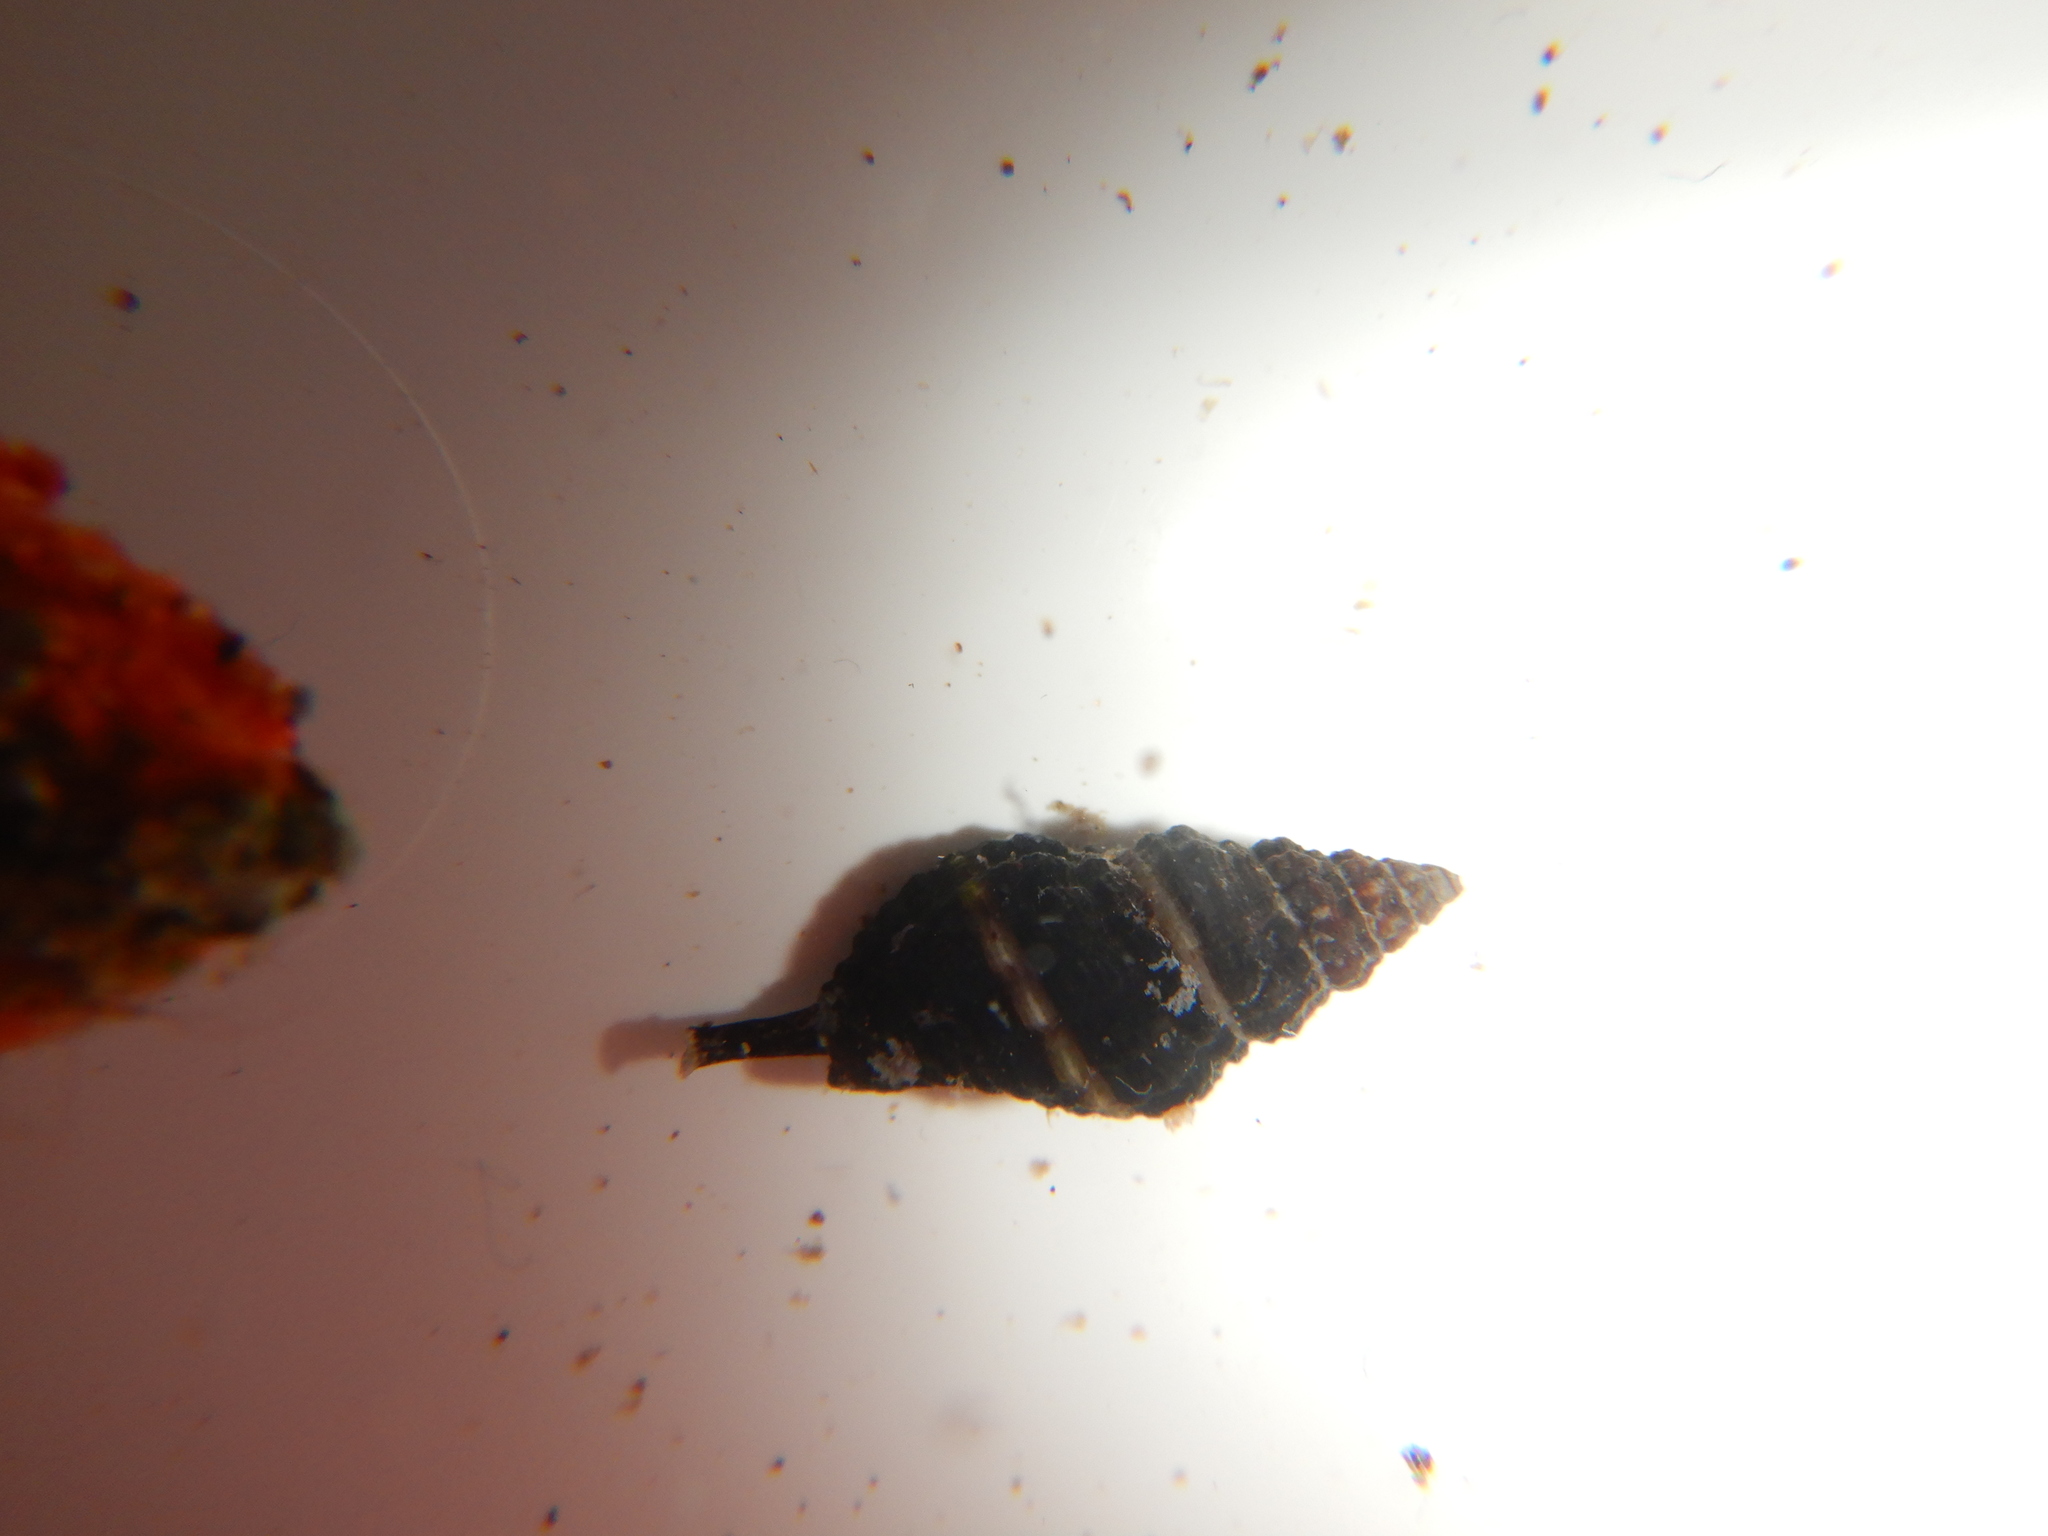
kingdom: Animalia
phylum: Mollusca
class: Gastropoda
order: Neogastropoda
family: Pisaniidae
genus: Aplus
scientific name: Aplus dorbignyi
